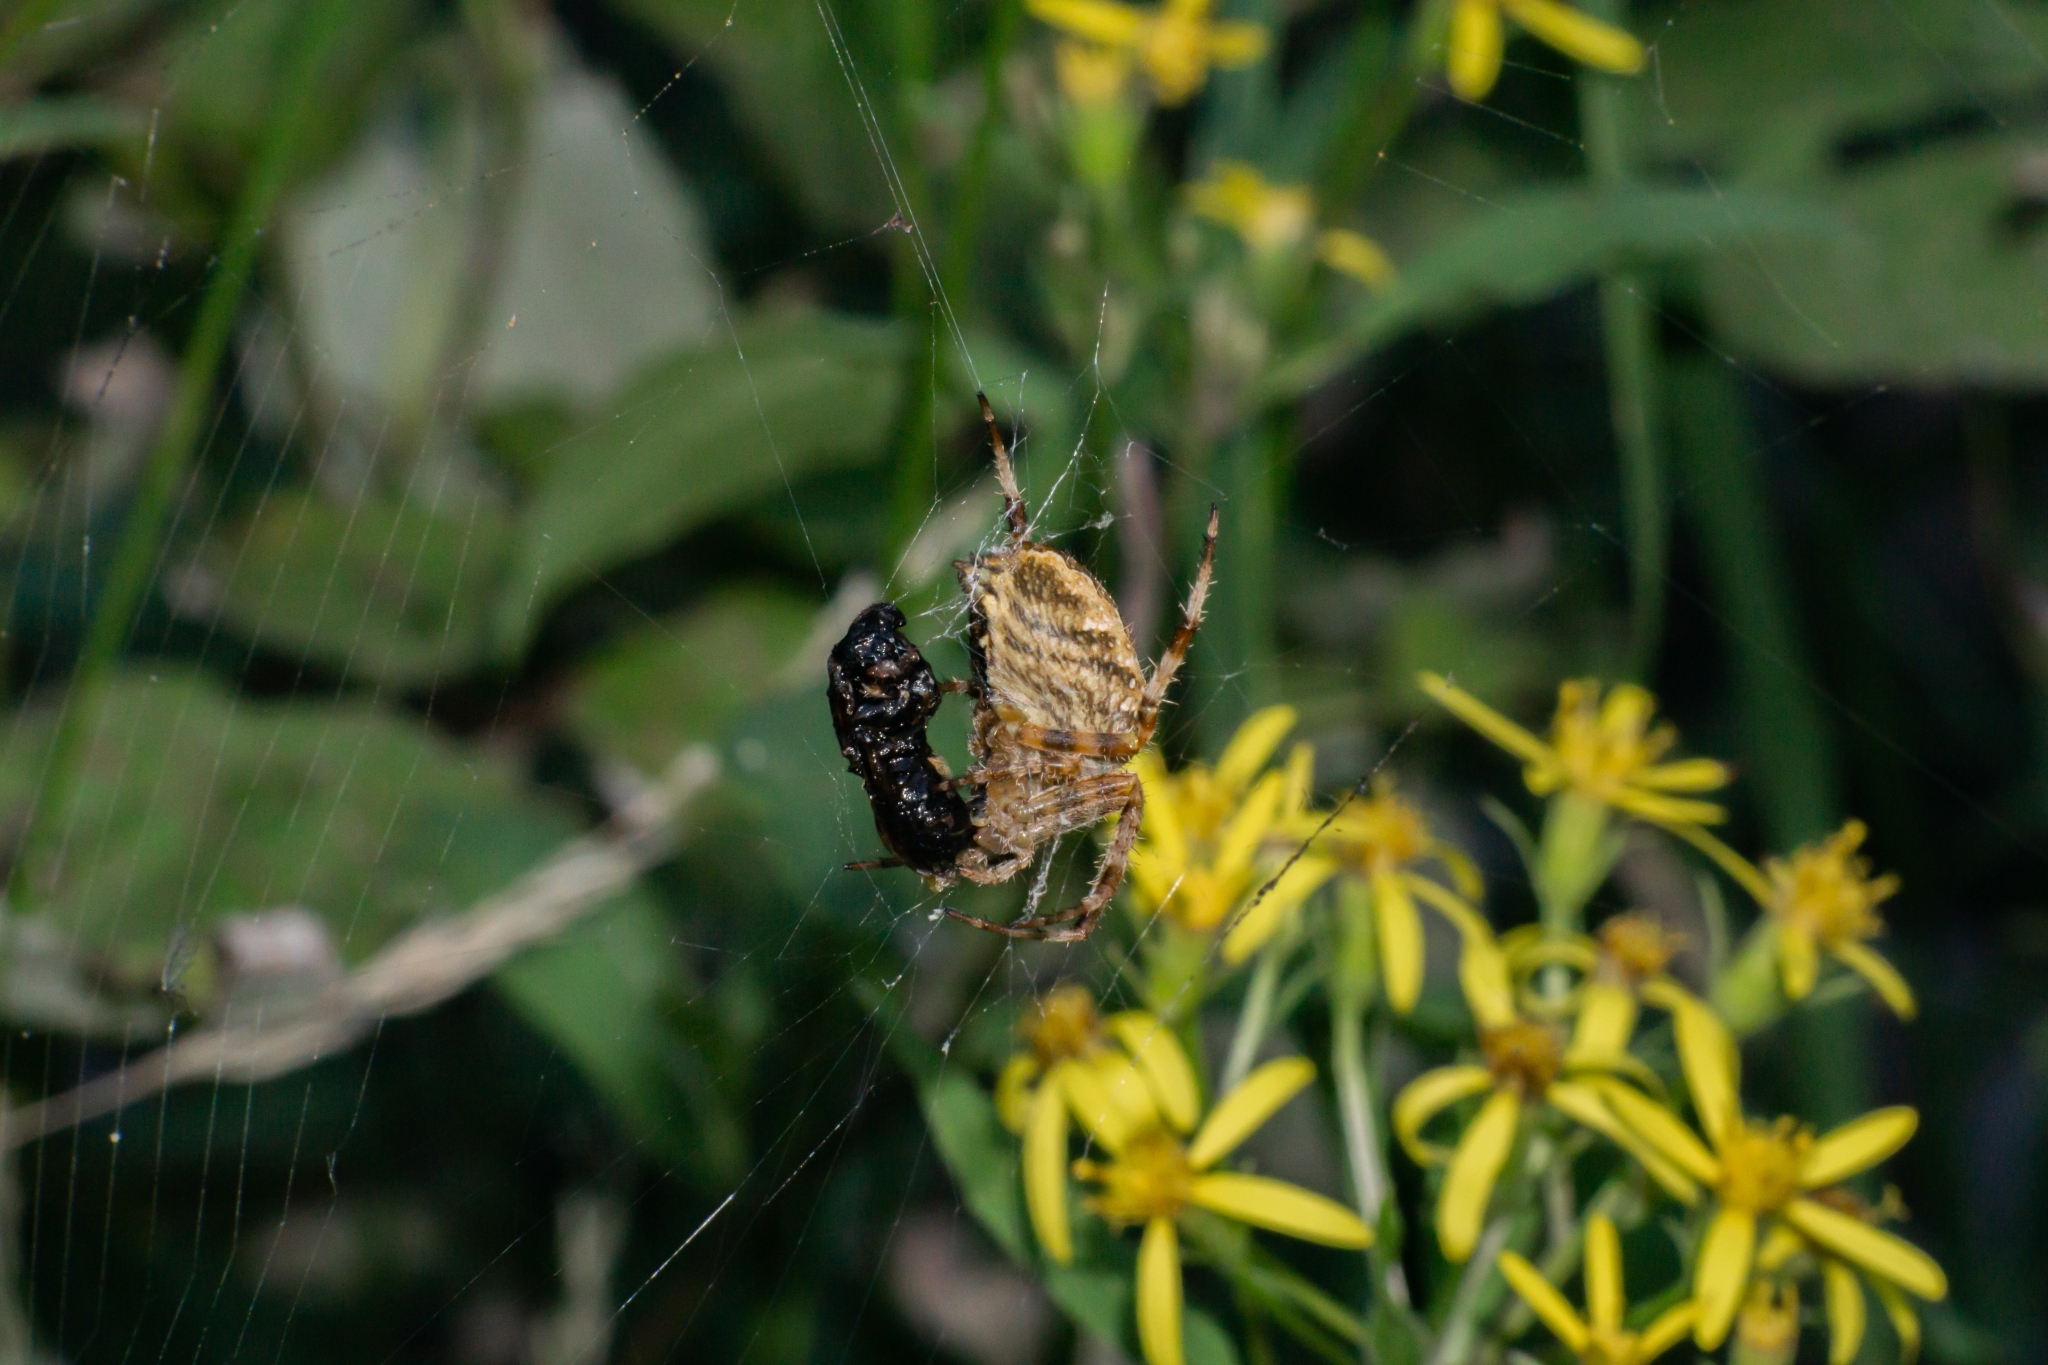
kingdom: Animalia
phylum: Arthropoda
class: Arachnida
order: Araneae
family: Araneidae
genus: Araneus
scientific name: Araneus diadematus
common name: Cross orbweaver
